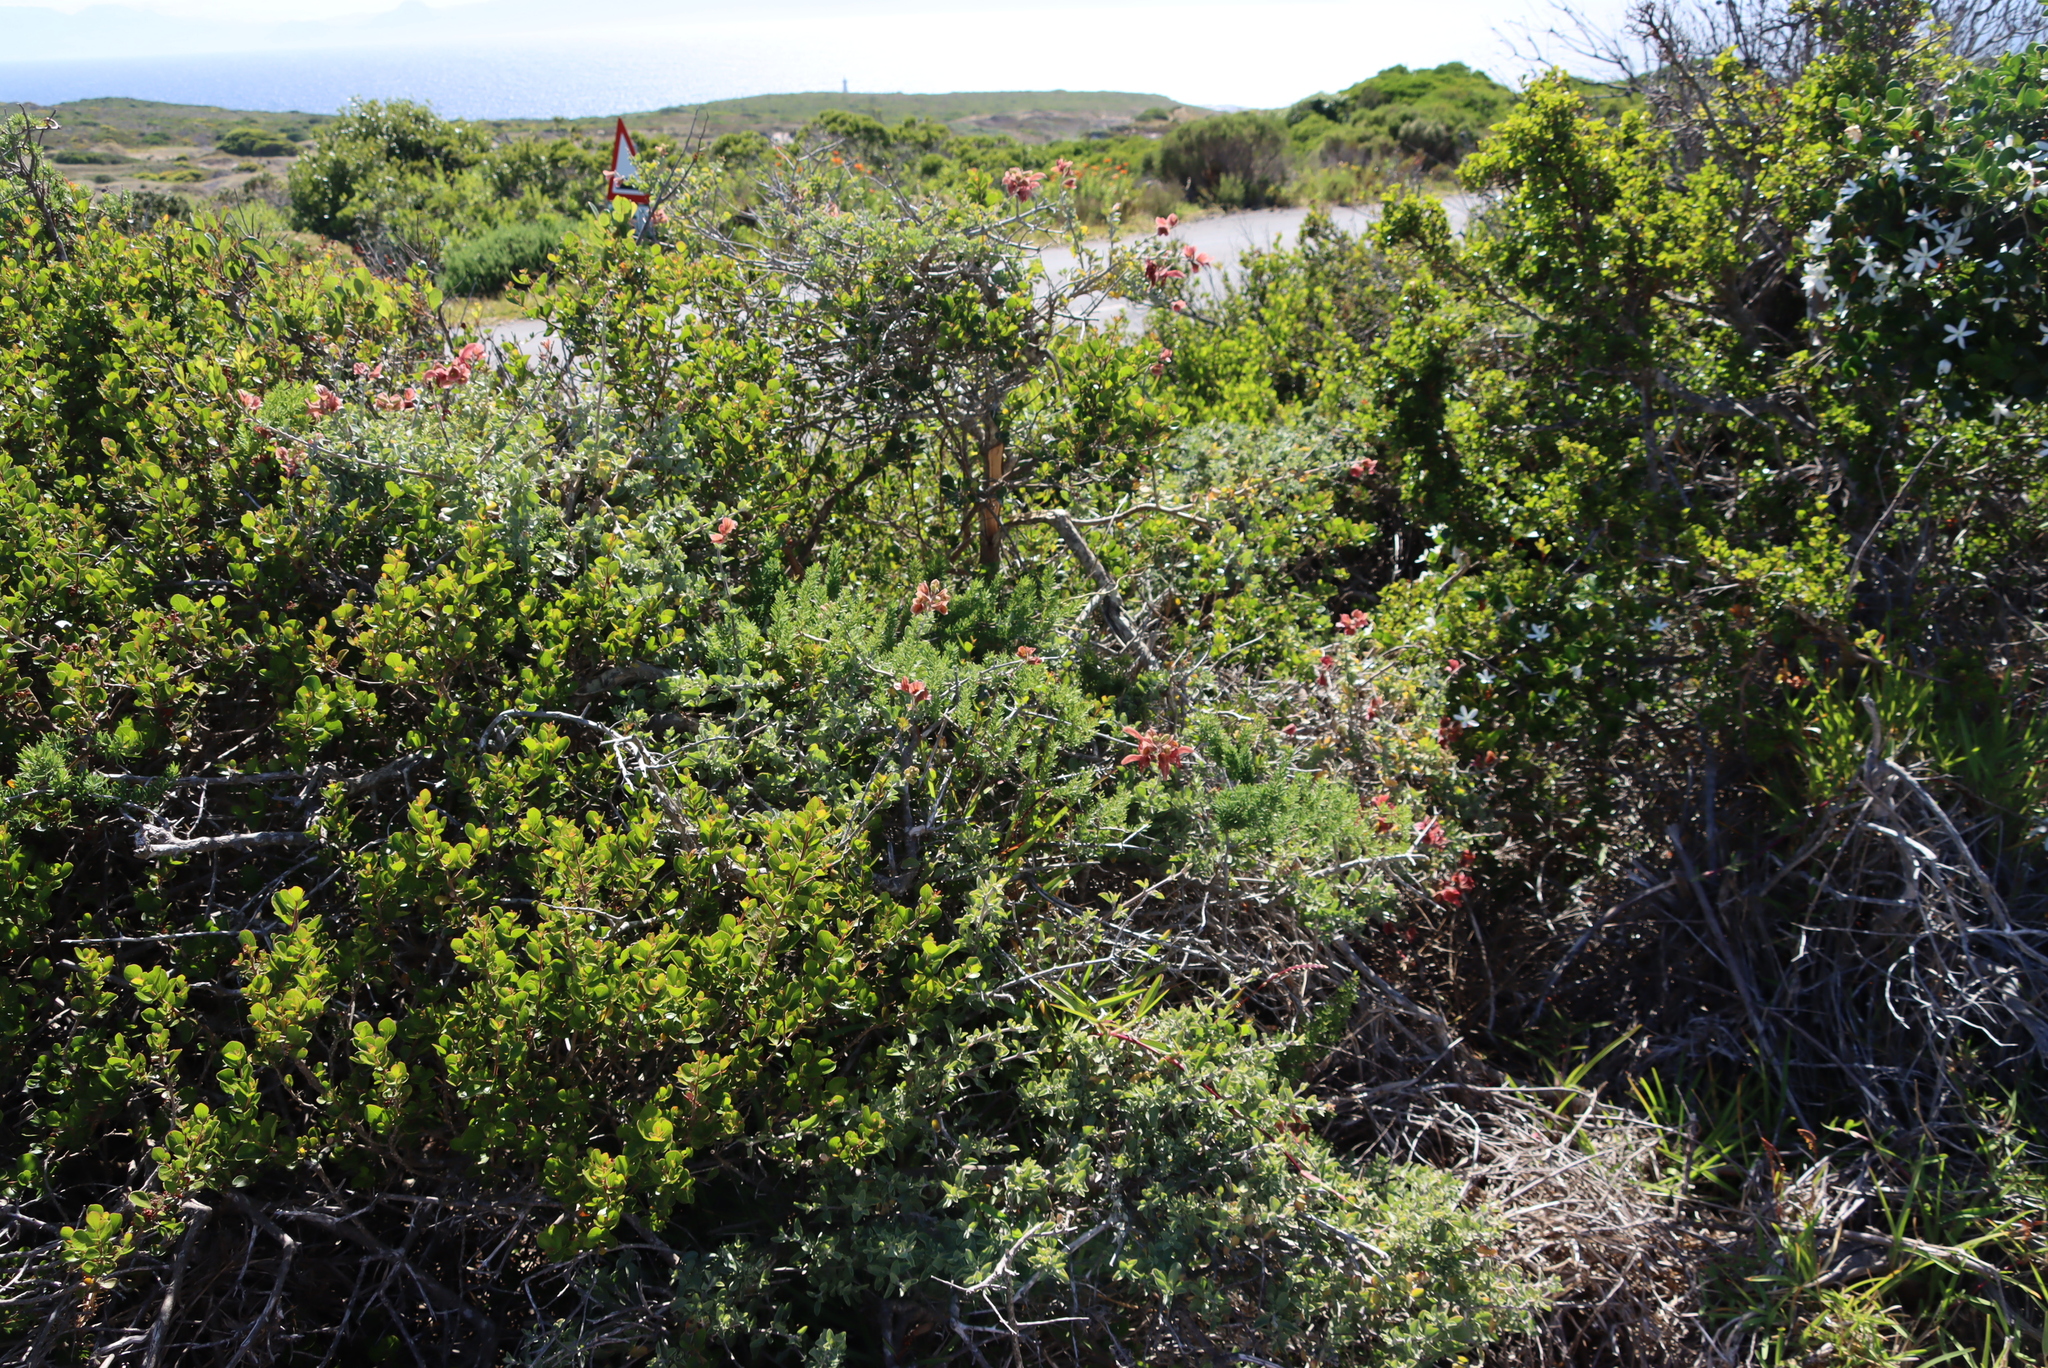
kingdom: Plantae
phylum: Tracheophyta
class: Magnoliopsida
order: Lamiales
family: Lamiaceae
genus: Salvia
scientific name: Salvia lanceolata
